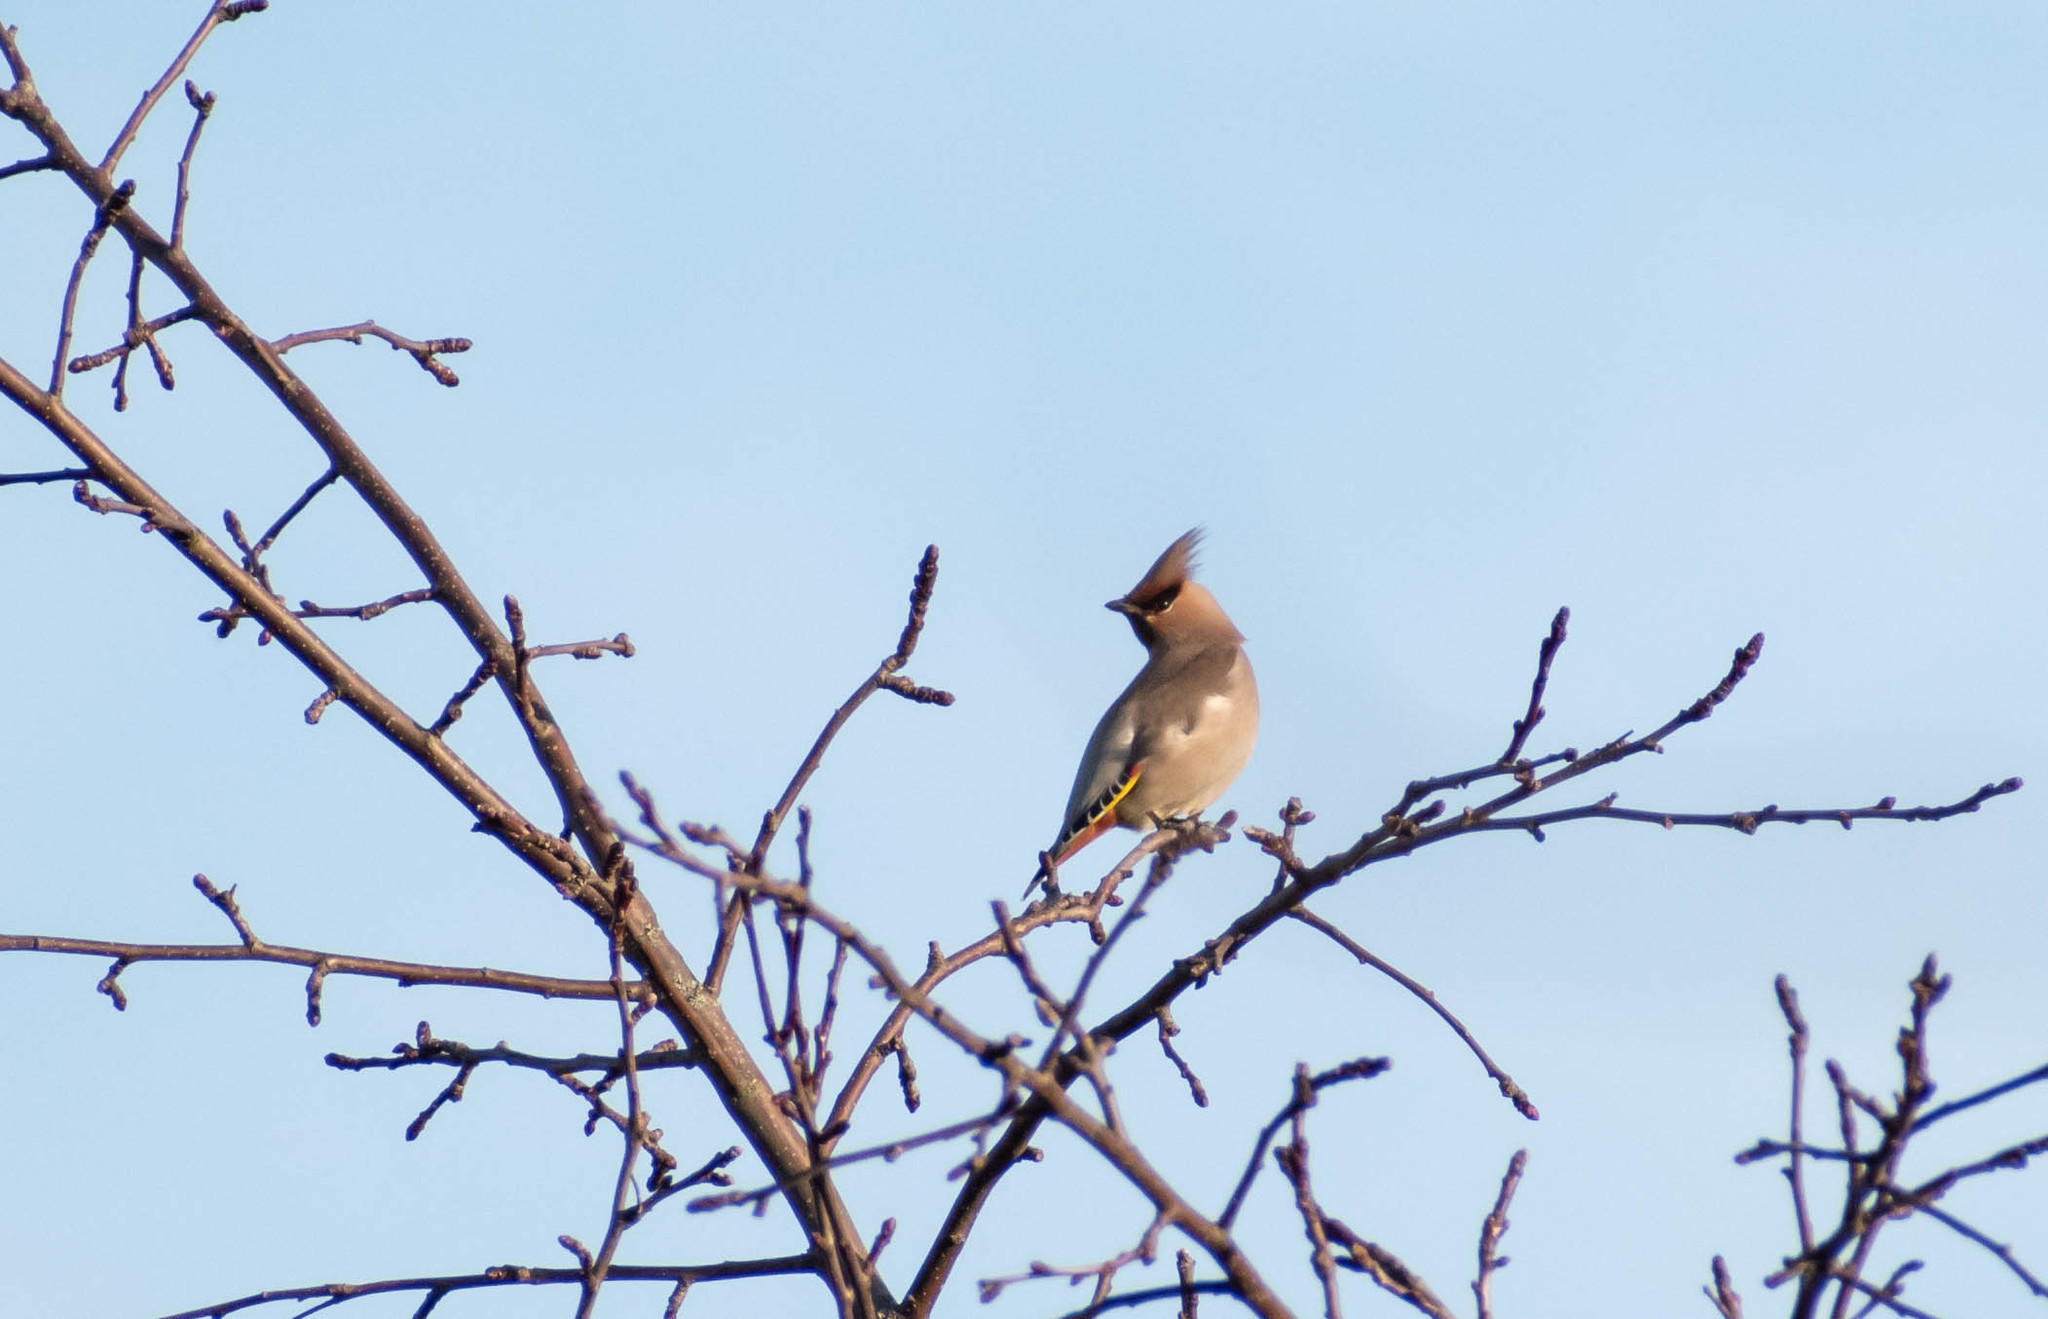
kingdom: Animalia
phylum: Chordata
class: Aves
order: Passeriformes
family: Bombycillidae
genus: Bombycilla
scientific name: Bombycilla garrulus
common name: Bohemian waxwing
